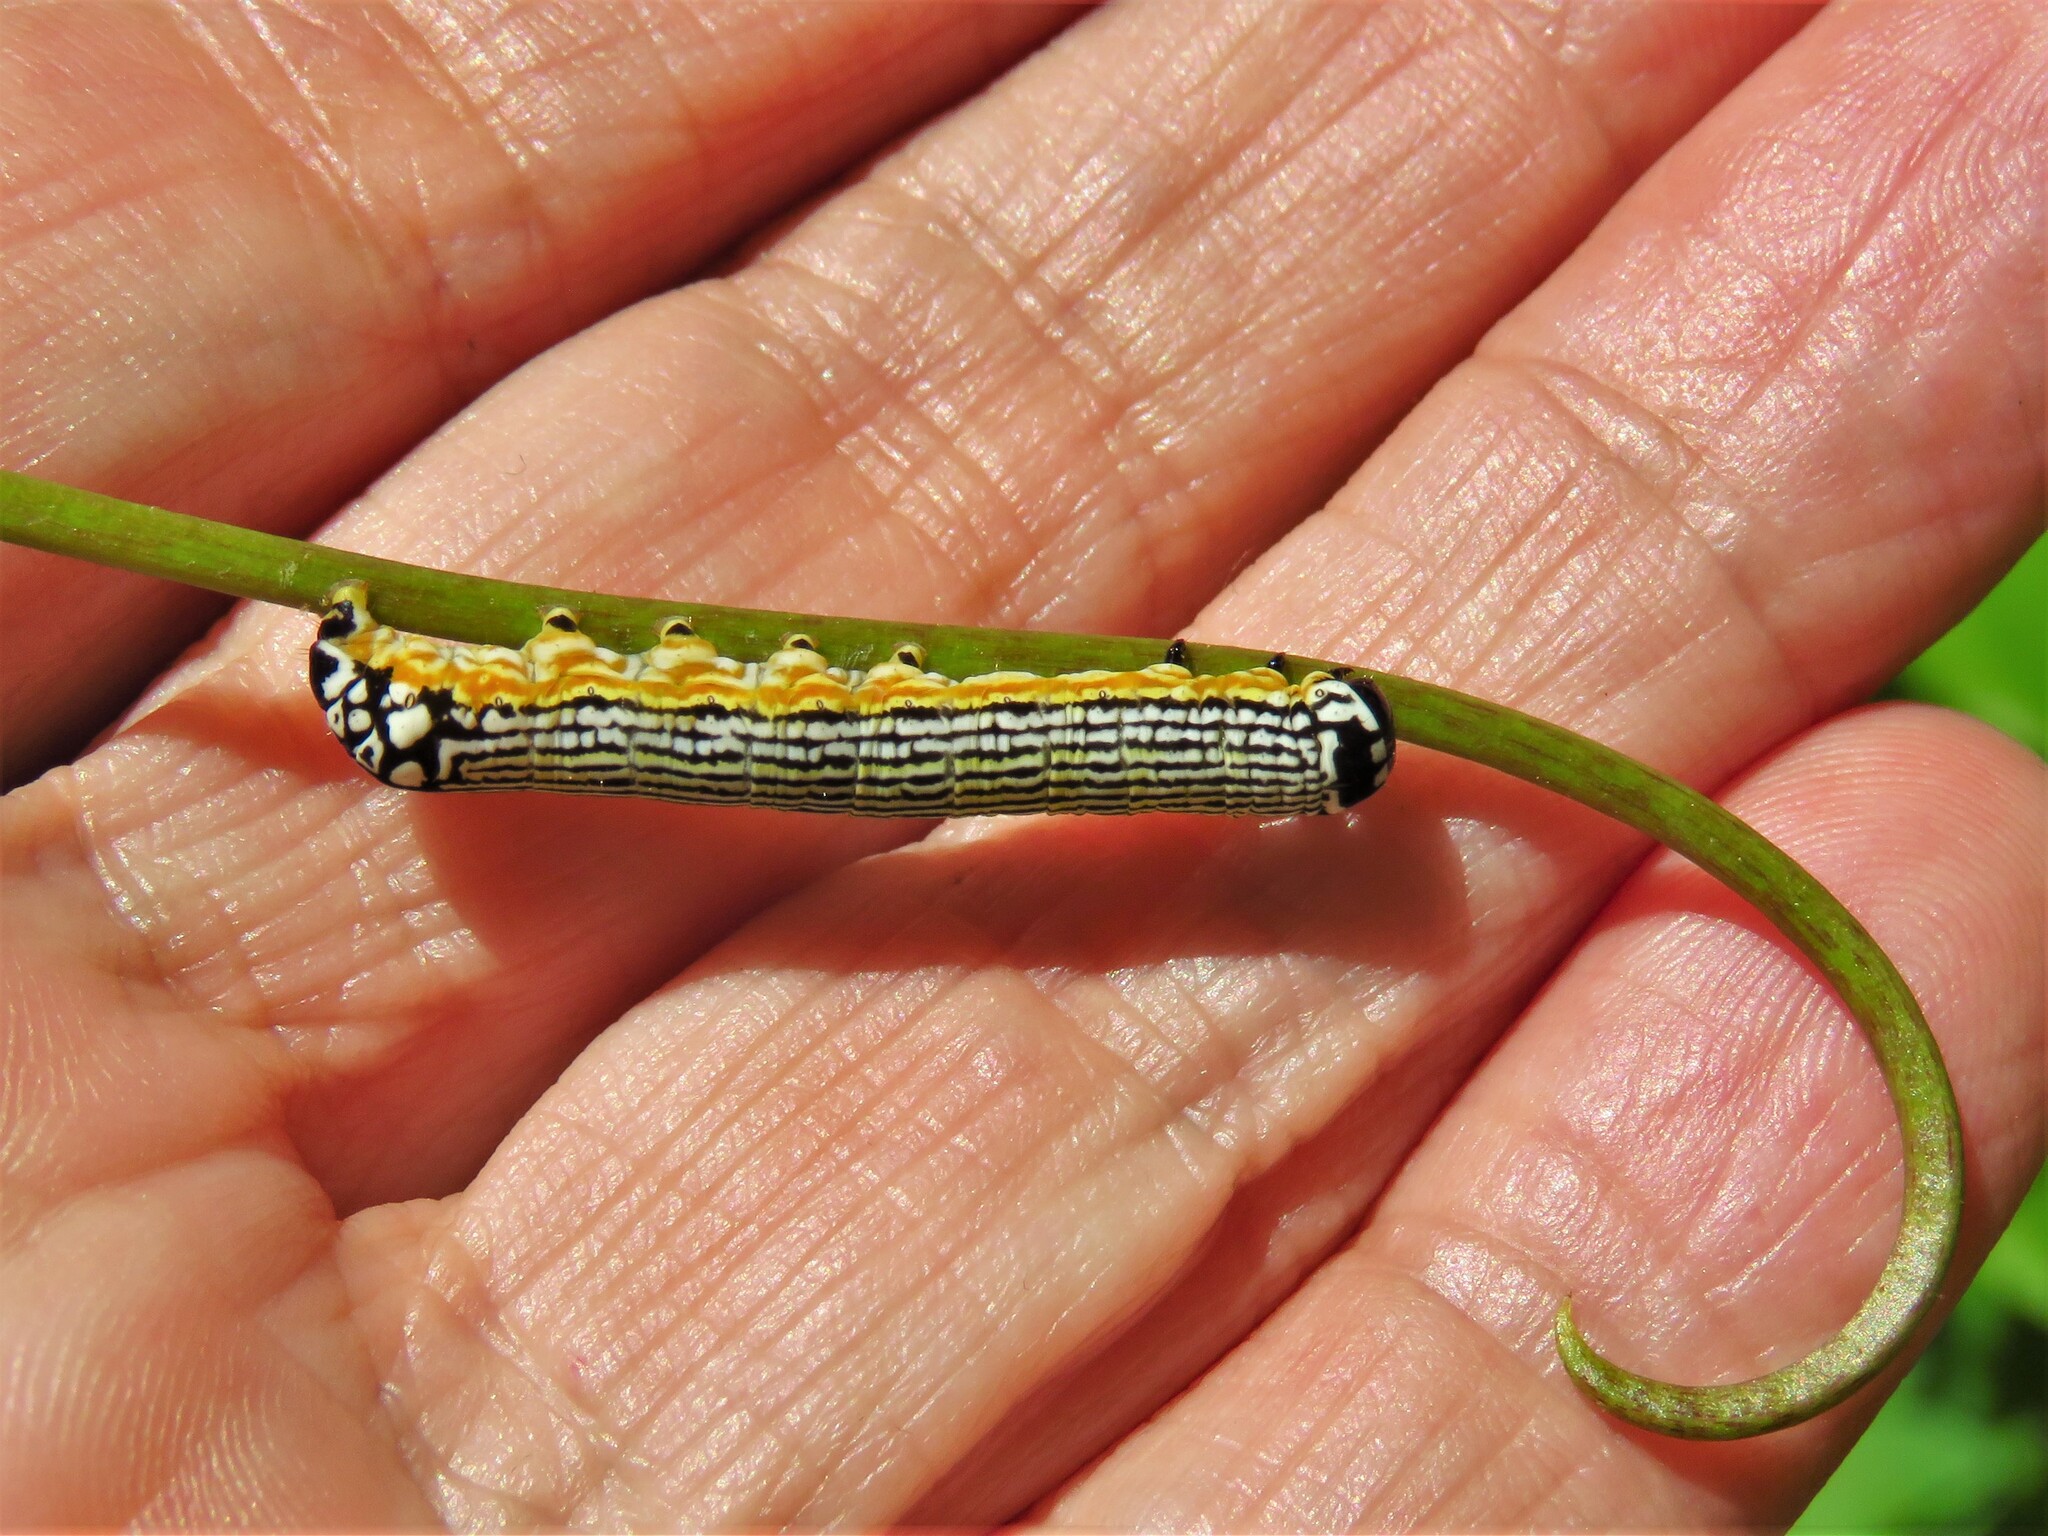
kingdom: Animalia
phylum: Arthropoda
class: Insecta
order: Lepidoptera
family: Noctuidae
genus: Phosphila
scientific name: Phosphila turbulenta
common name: Turbulent phosphila moth
